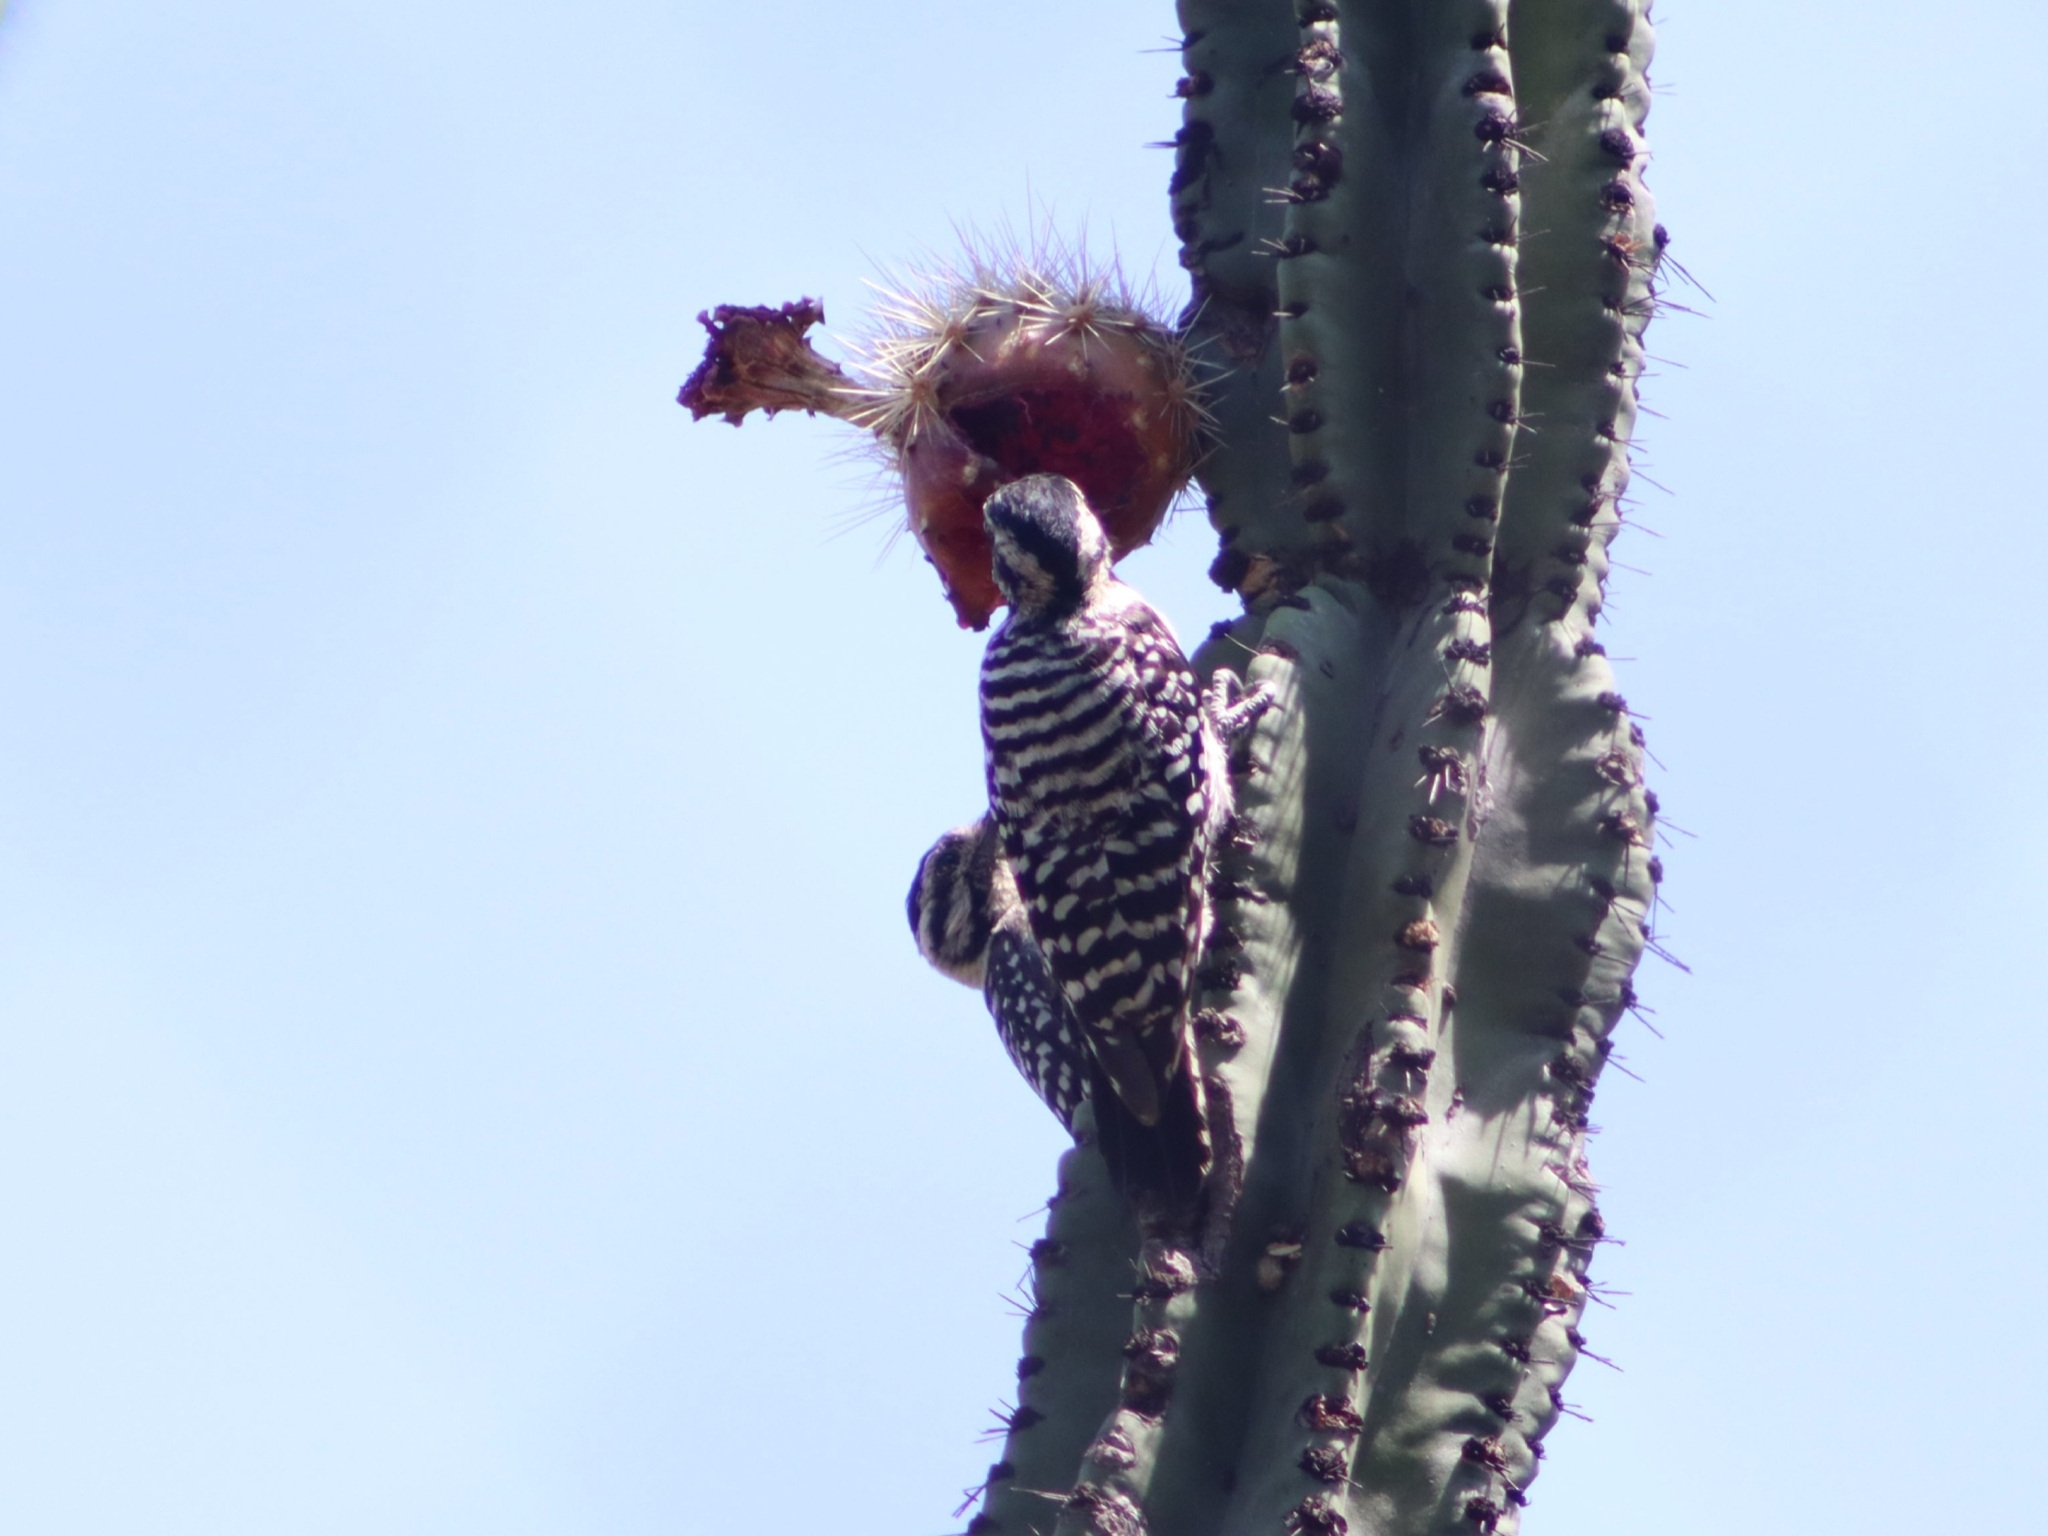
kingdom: Animalia
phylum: Chordata
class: Aves
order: Piciformes
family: Picidae
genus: Dryobates
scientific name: Dryobates scalaris
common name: Ladder-backed woodpecker
